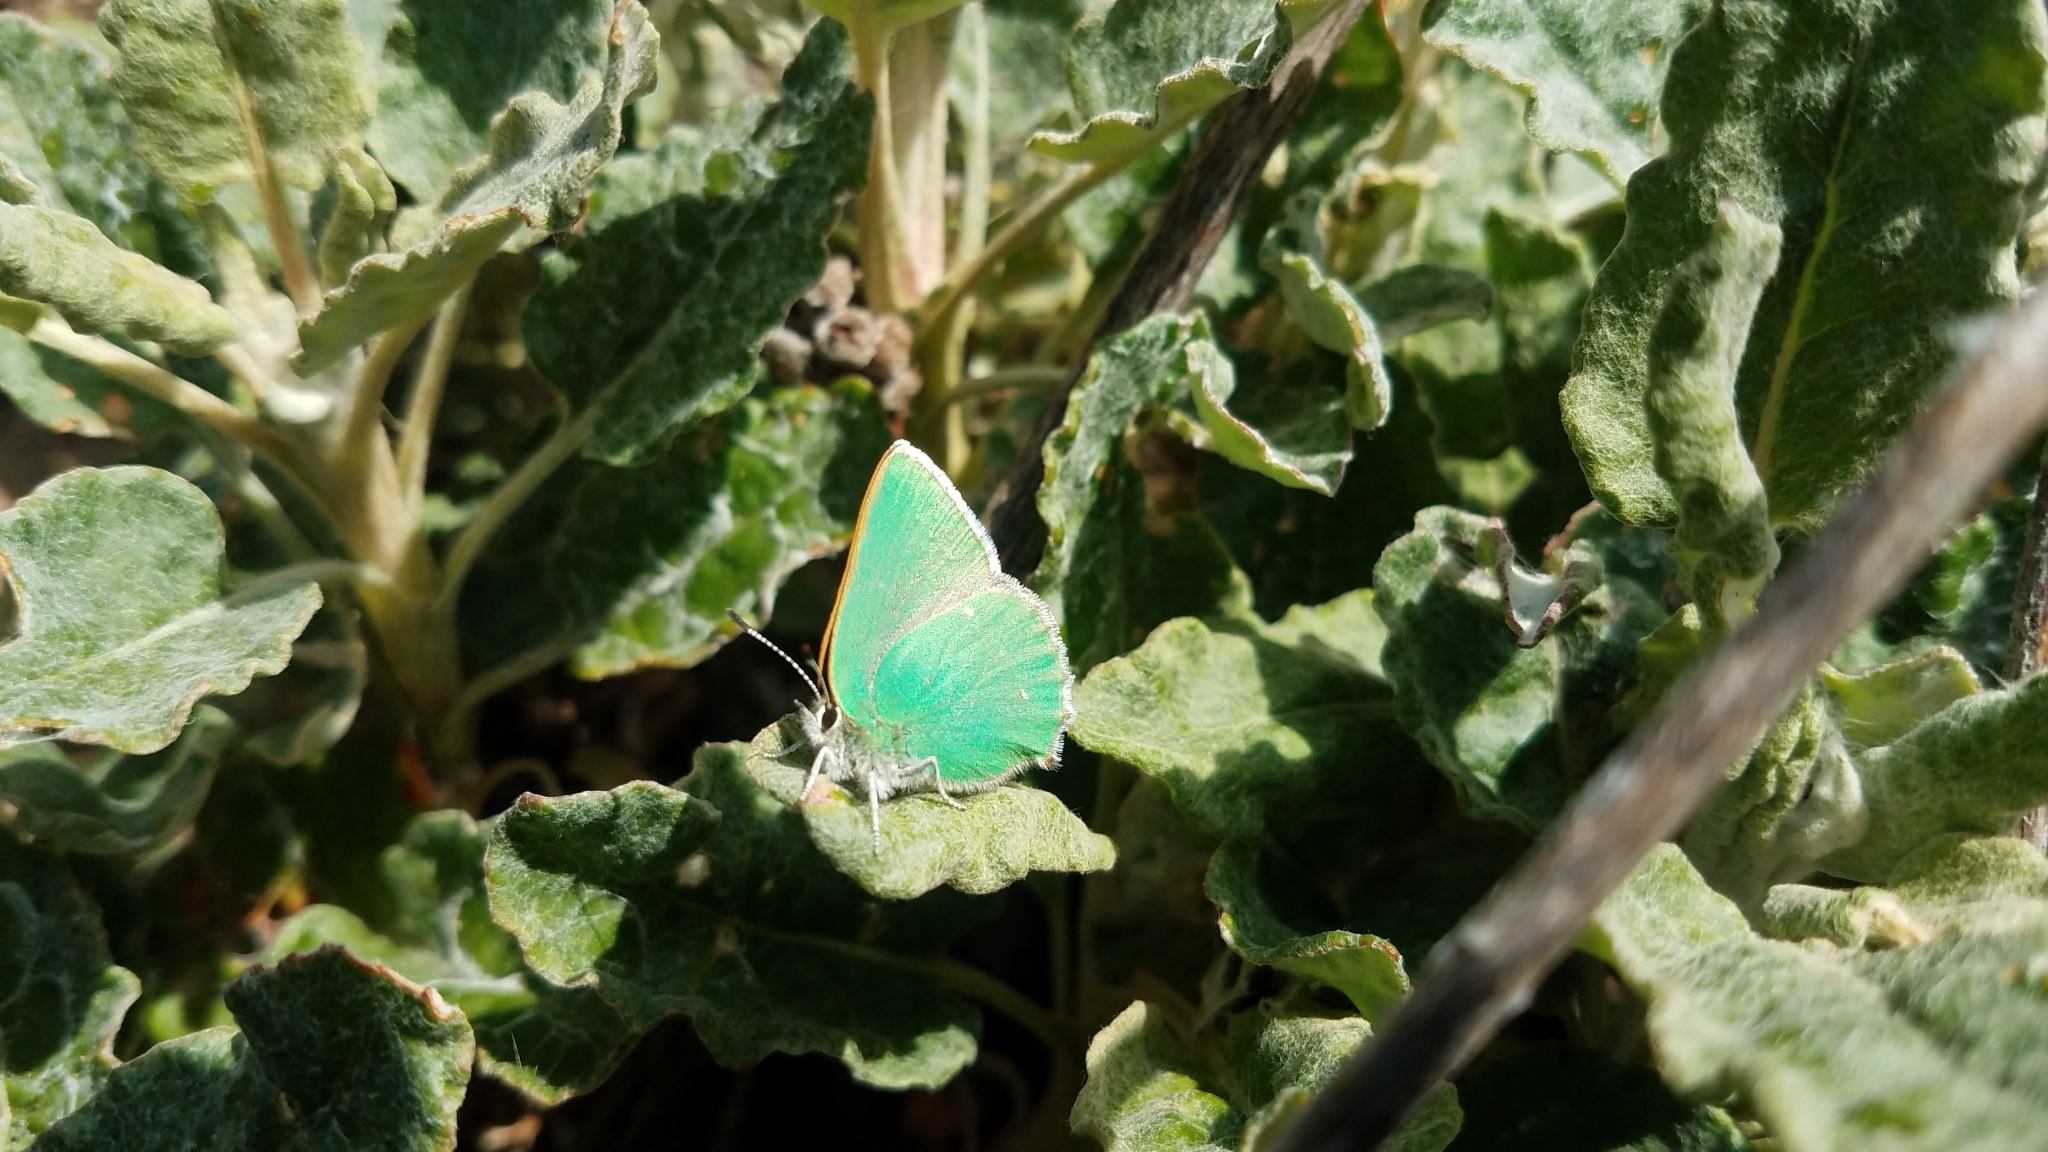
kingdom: Animalia
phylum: Arthropoda
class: Insecta
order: Lepidoptera
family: Lycaenidae
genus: Callophrys
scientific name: Callophrys viridis
